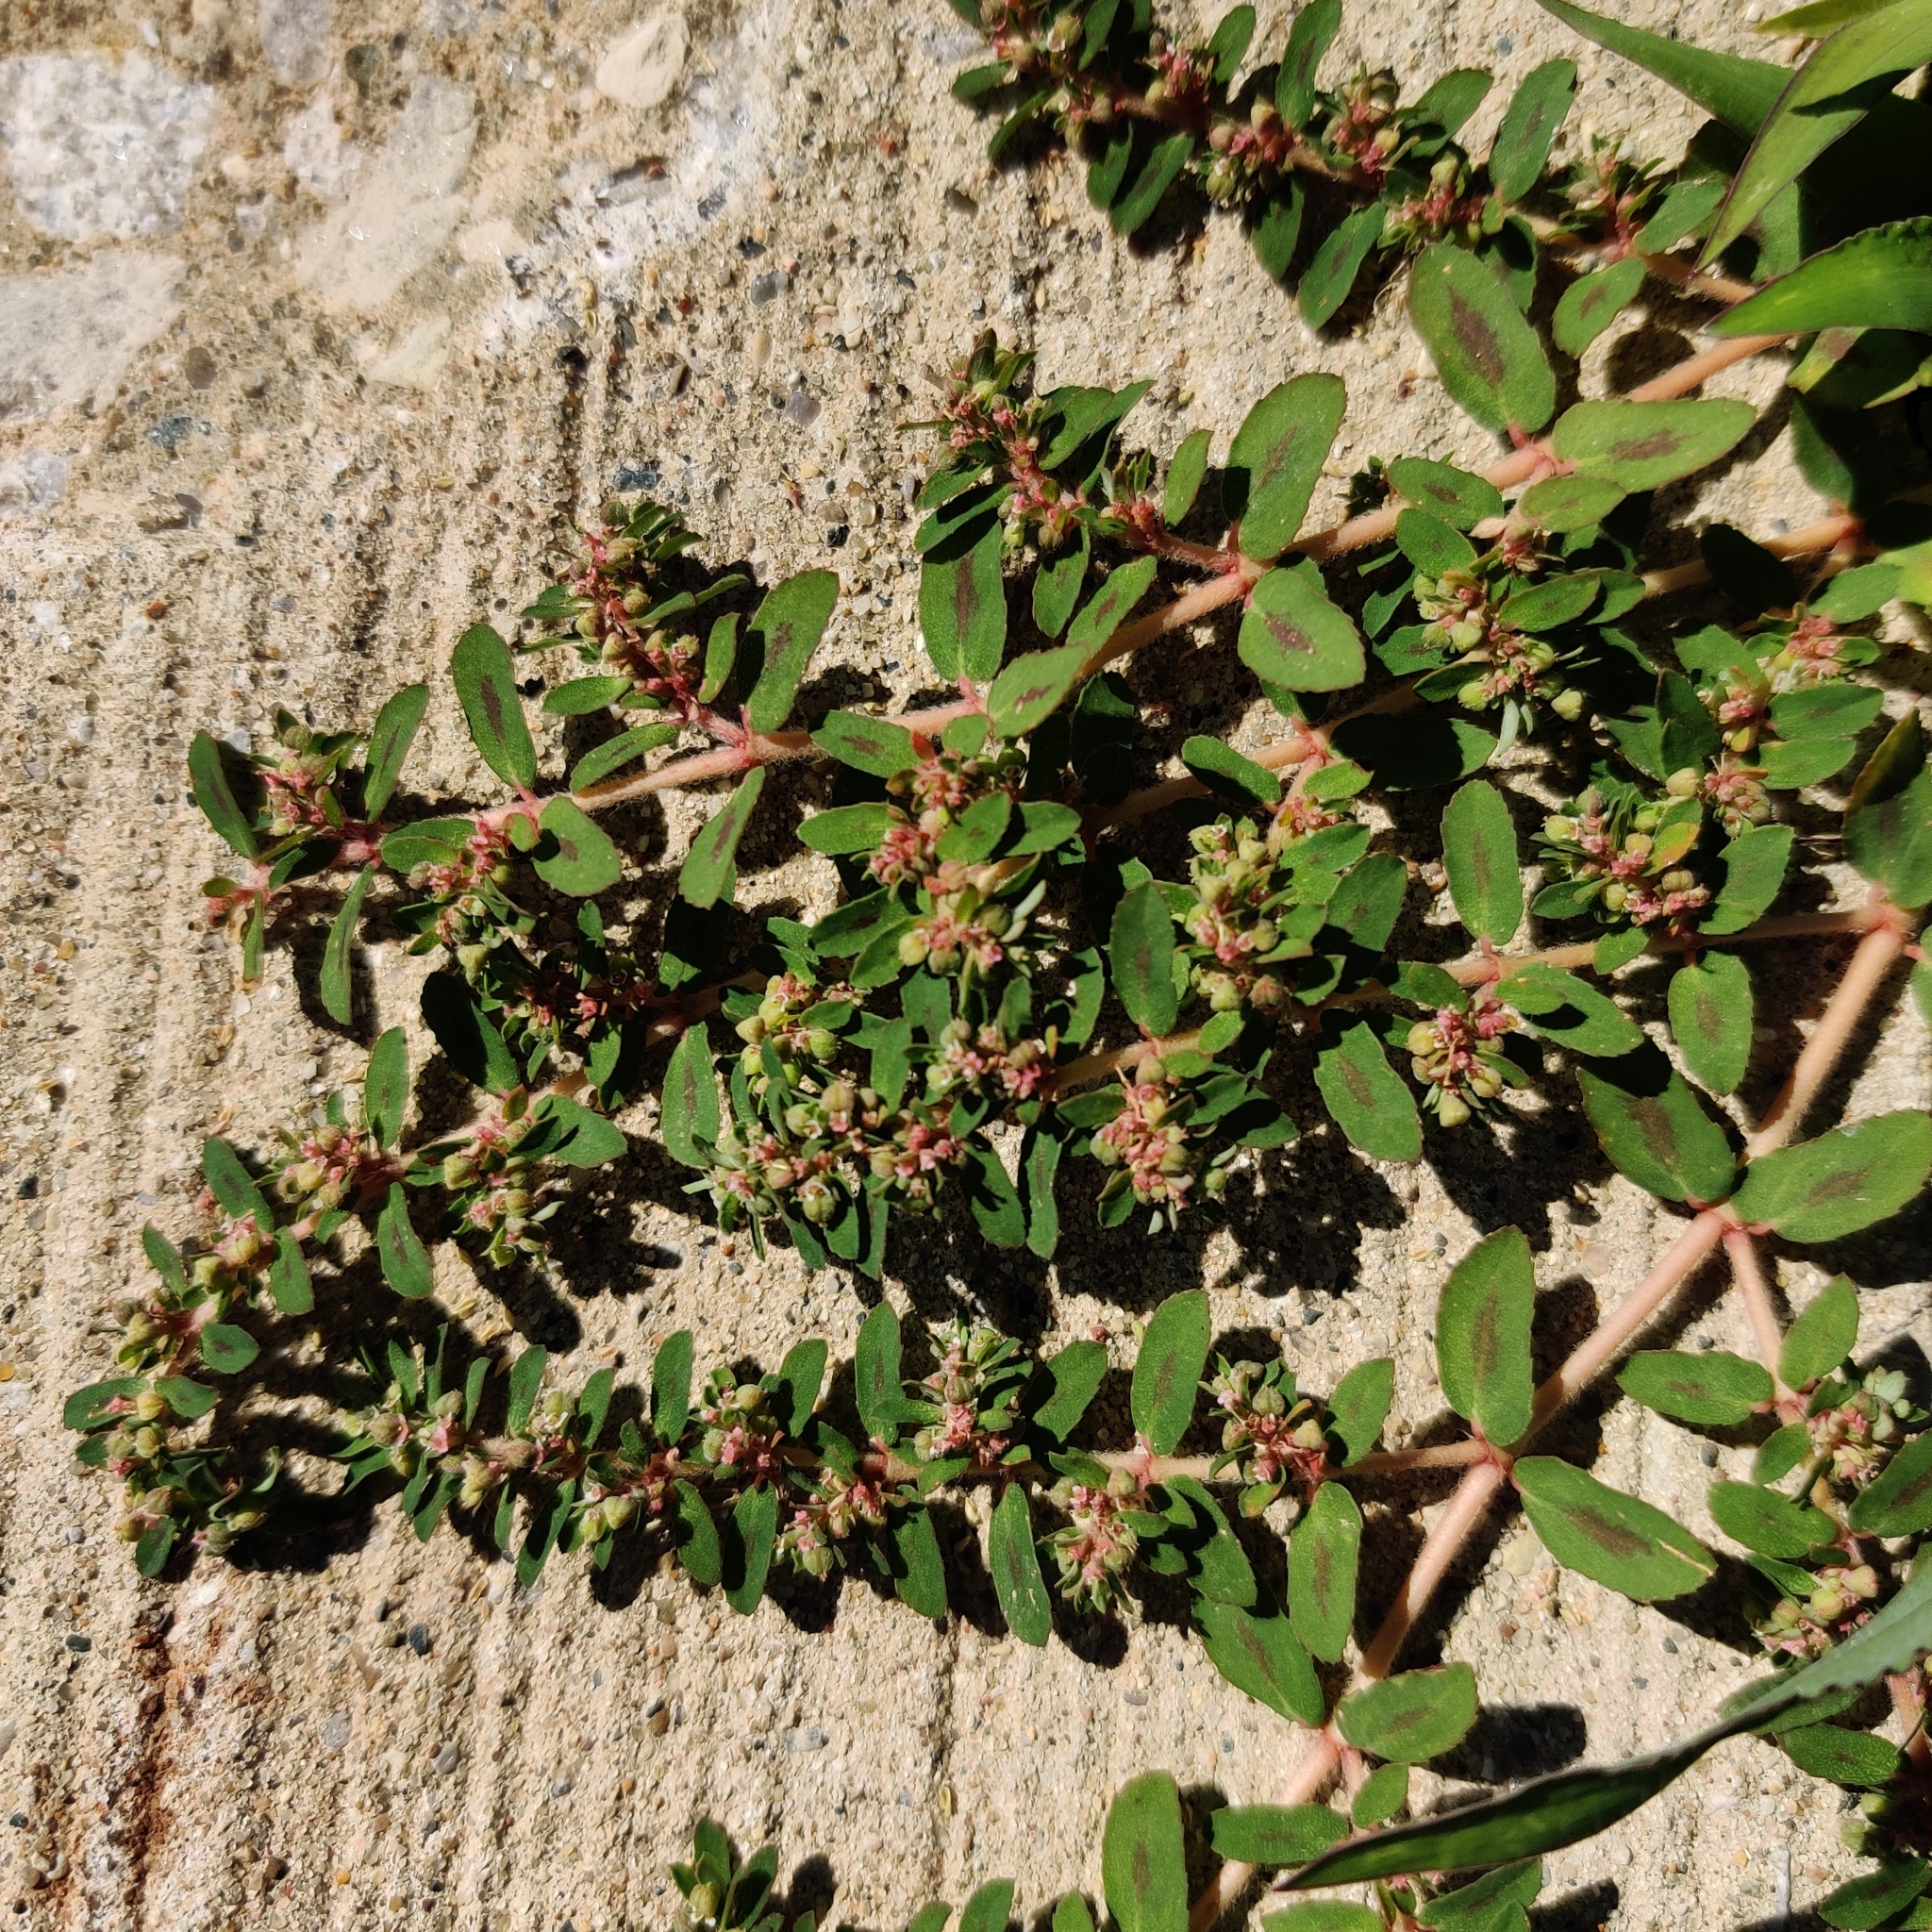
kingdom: Plantae
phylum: Tracheophyta
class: Magnoliopsida
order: Malpighiales
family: Euphorbiaceae
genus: Euphorbia
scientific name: Euphorbia maculata
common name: Spotted spurge
